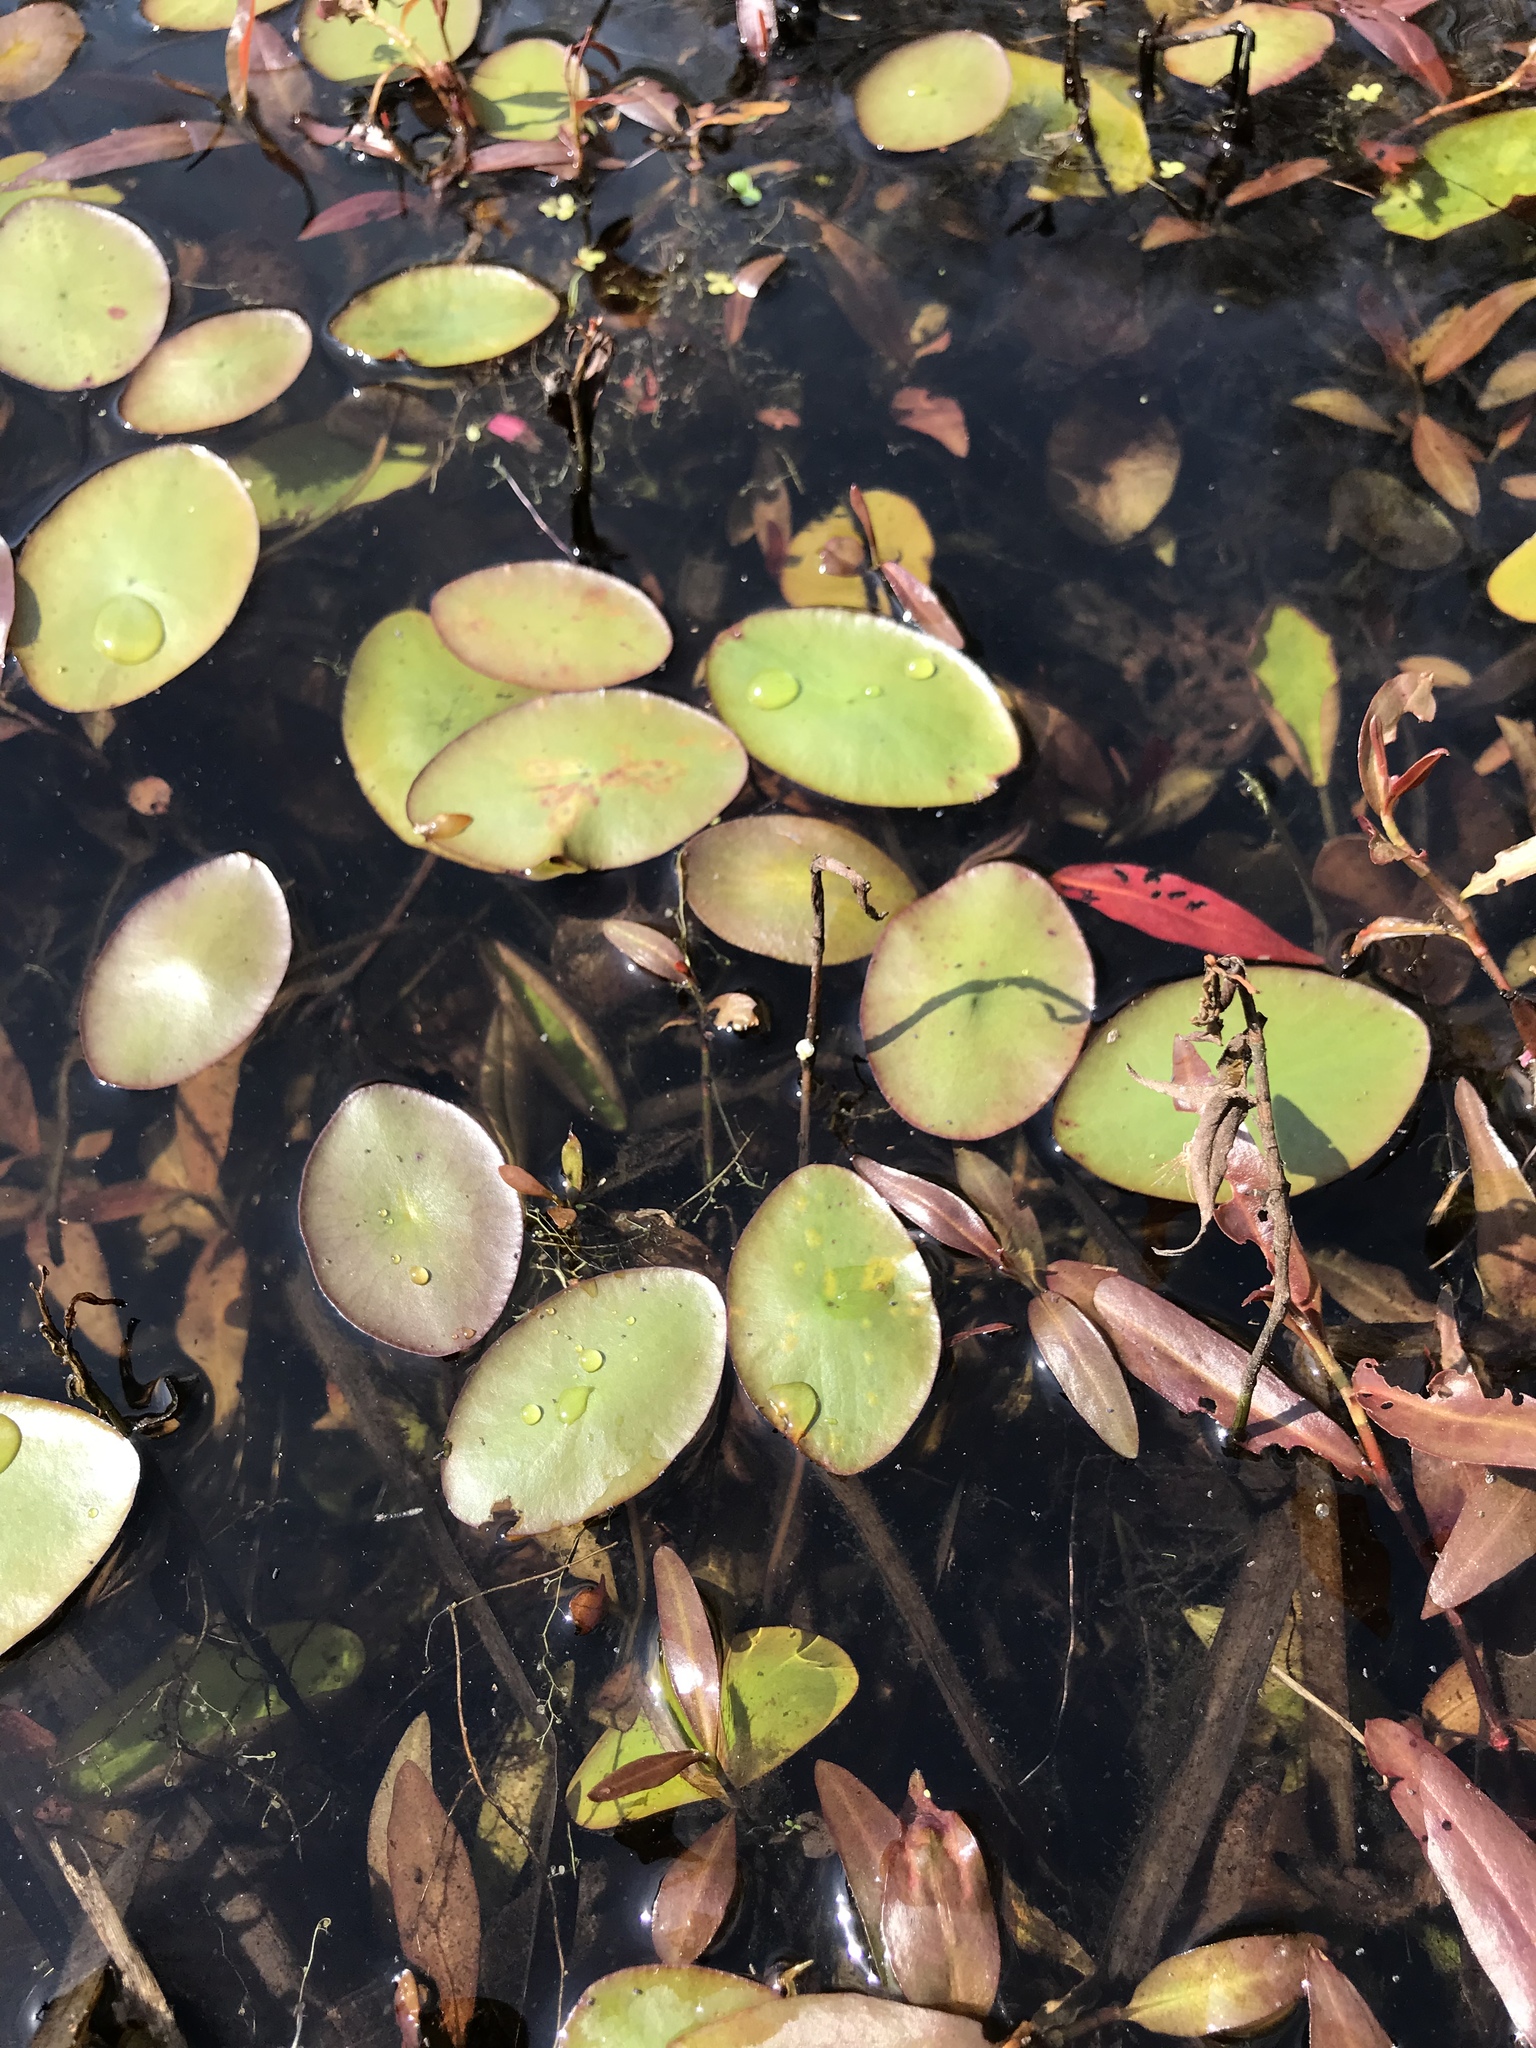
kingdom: Plantae
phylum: Tracheophyta
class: Magnoliopsida
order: Nymphaeales
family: Cabombaceae
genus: Brasenia
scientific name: Brasenia schreberi
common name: Water-shield
